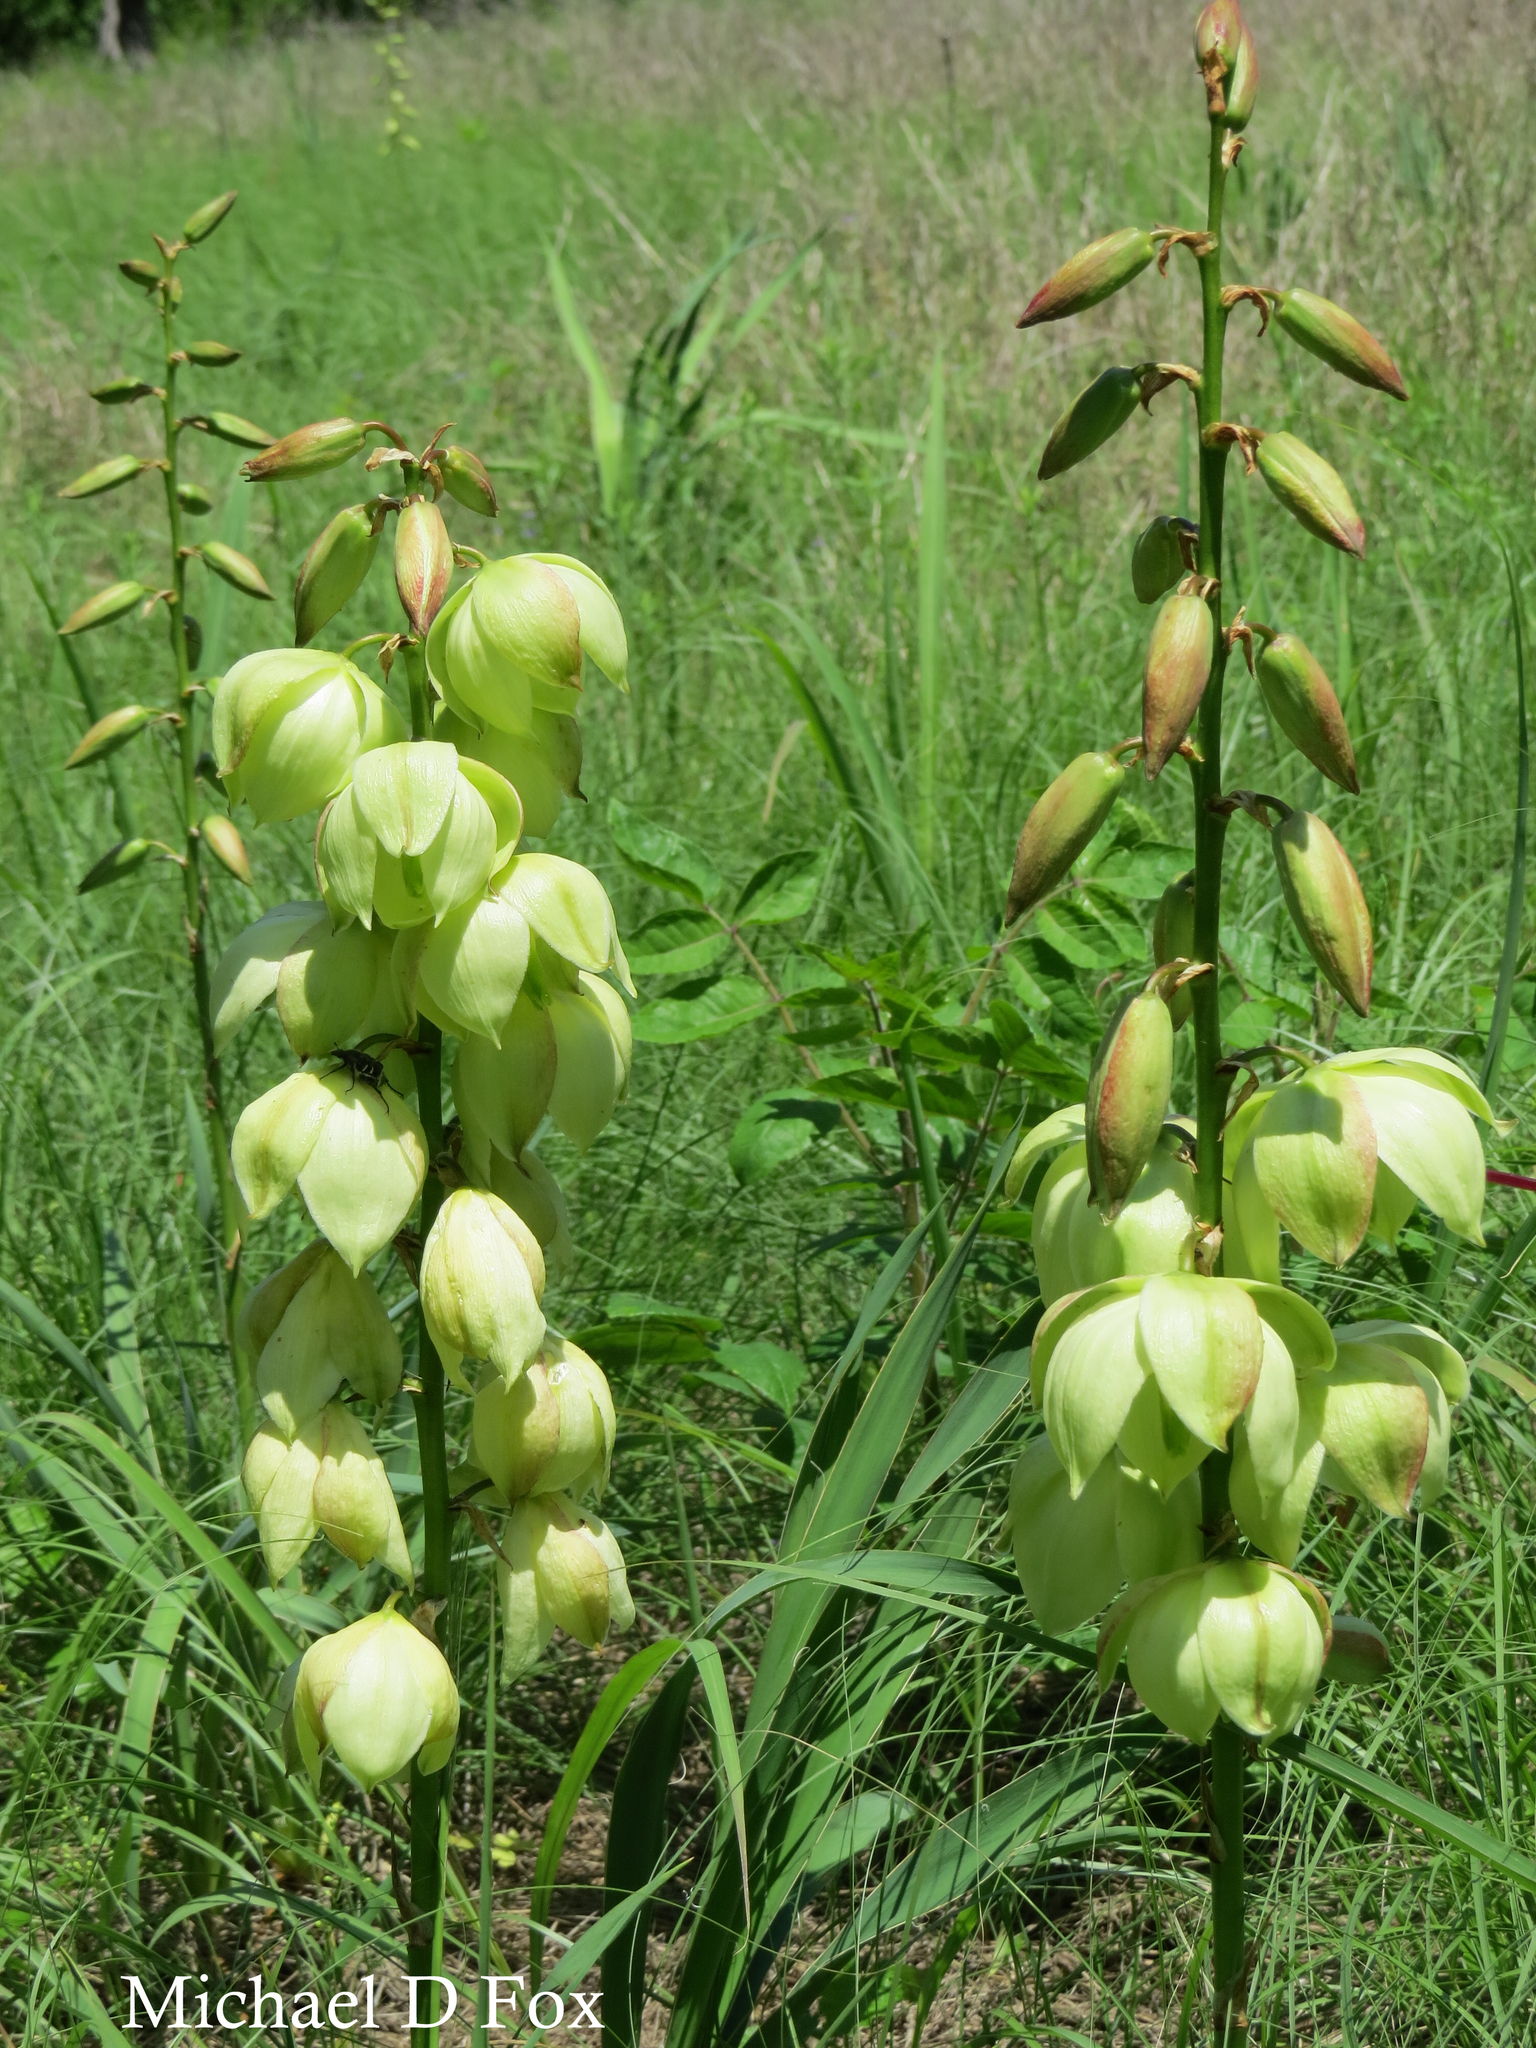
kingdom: Plantae
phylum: Tracheophyta
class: Liliopsida
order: Asparagales
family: Asparagaceae
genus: Yucca
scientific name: Yucca arkansana
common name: Arkansas yucca
